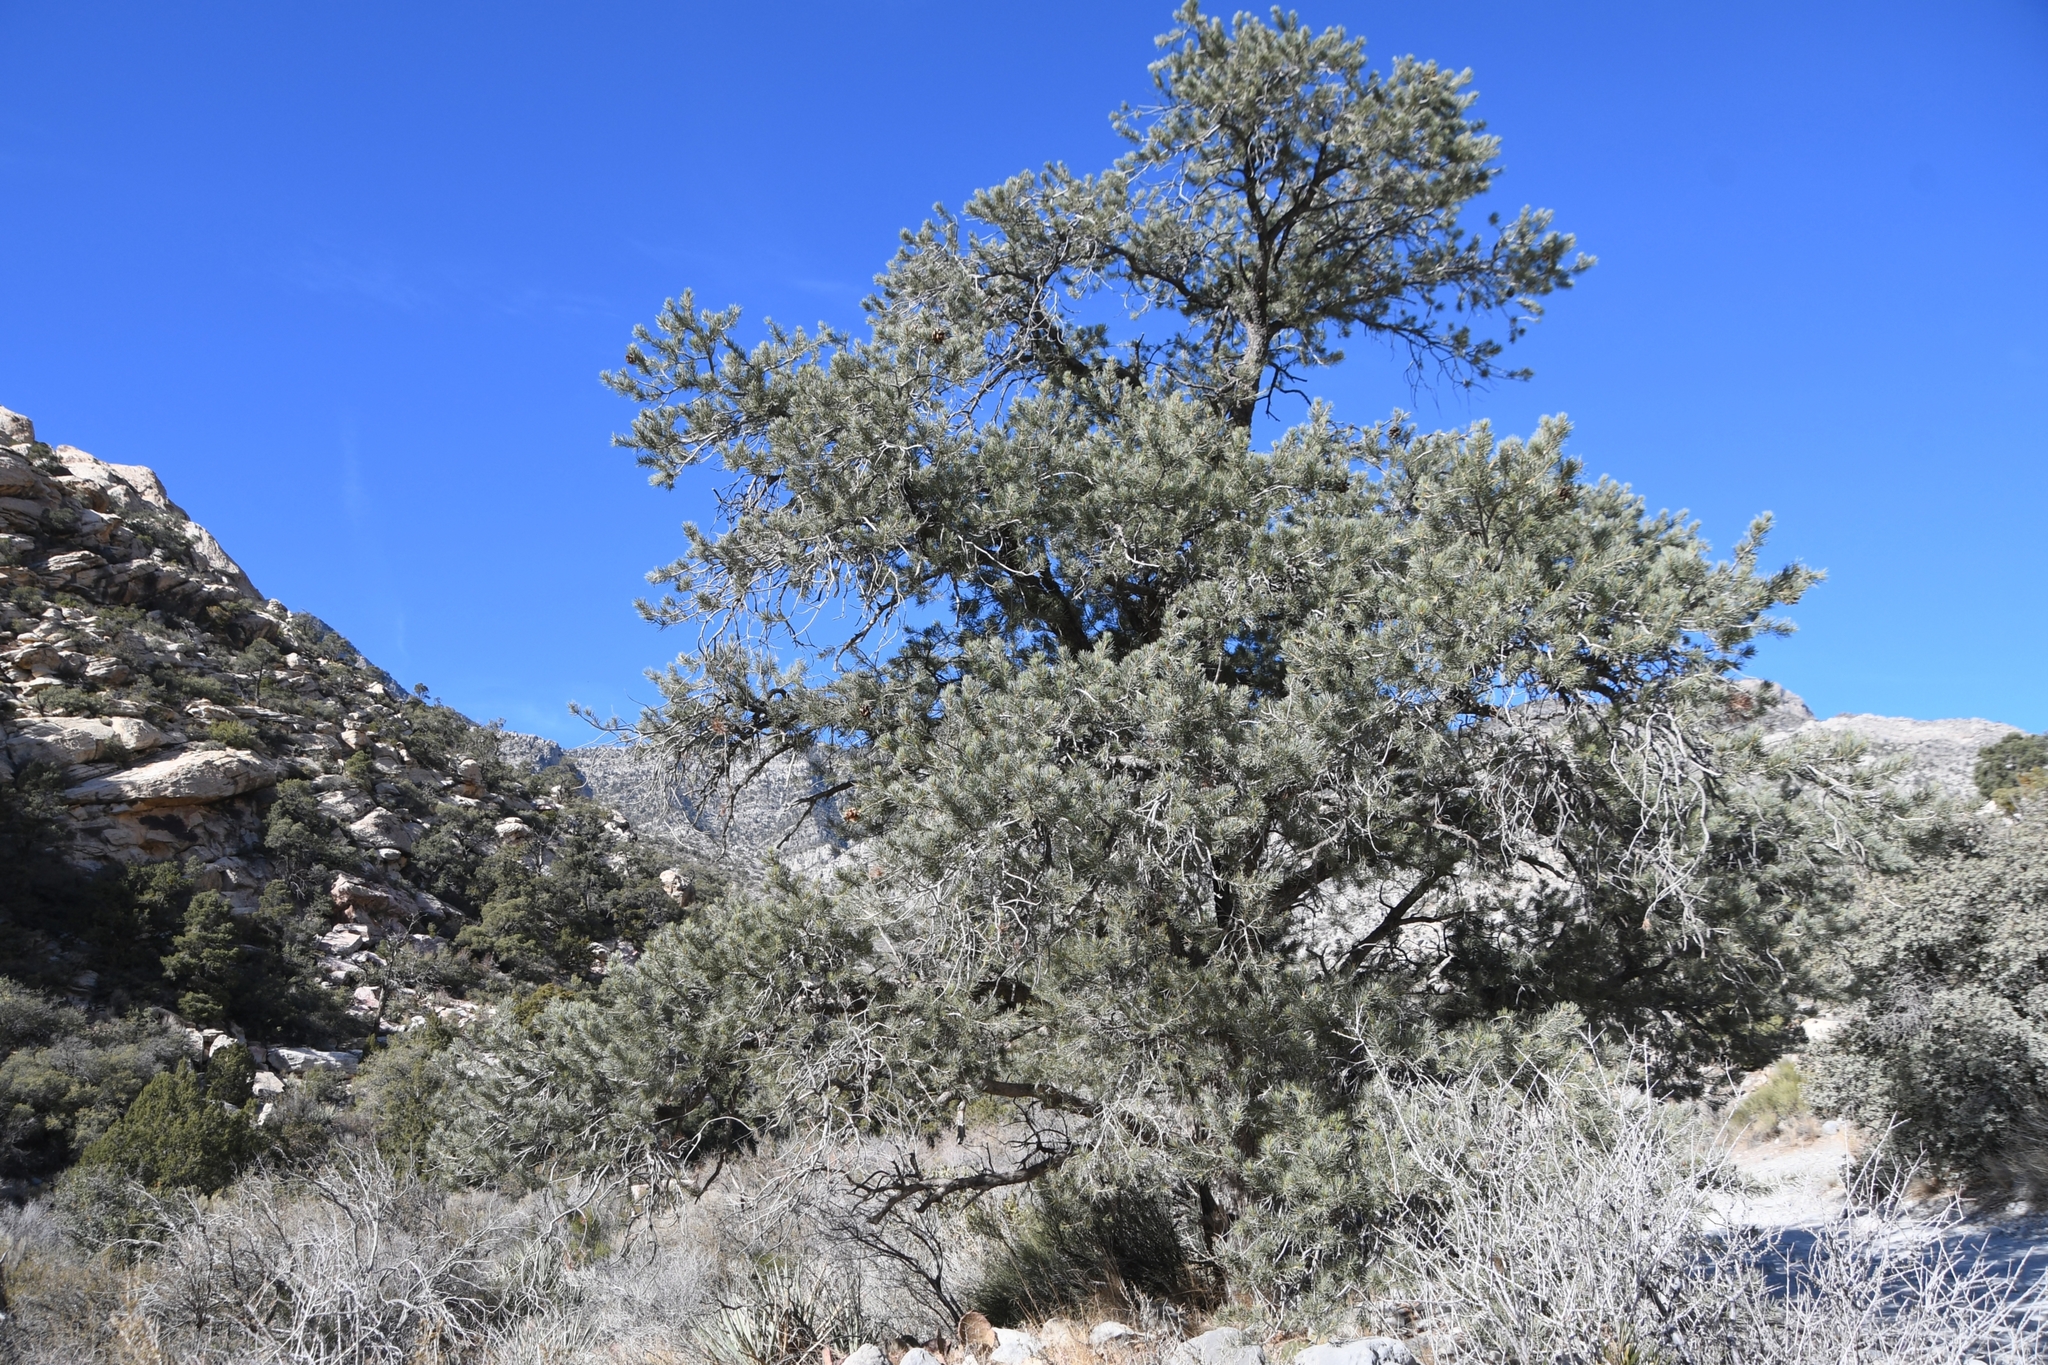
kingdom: Plantae
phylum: Tracheophyta
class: Pinopsida
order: Pinales
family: Pinaceae
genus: Pinus
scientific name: Pinus monophylla
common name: One-leaved nut pine
